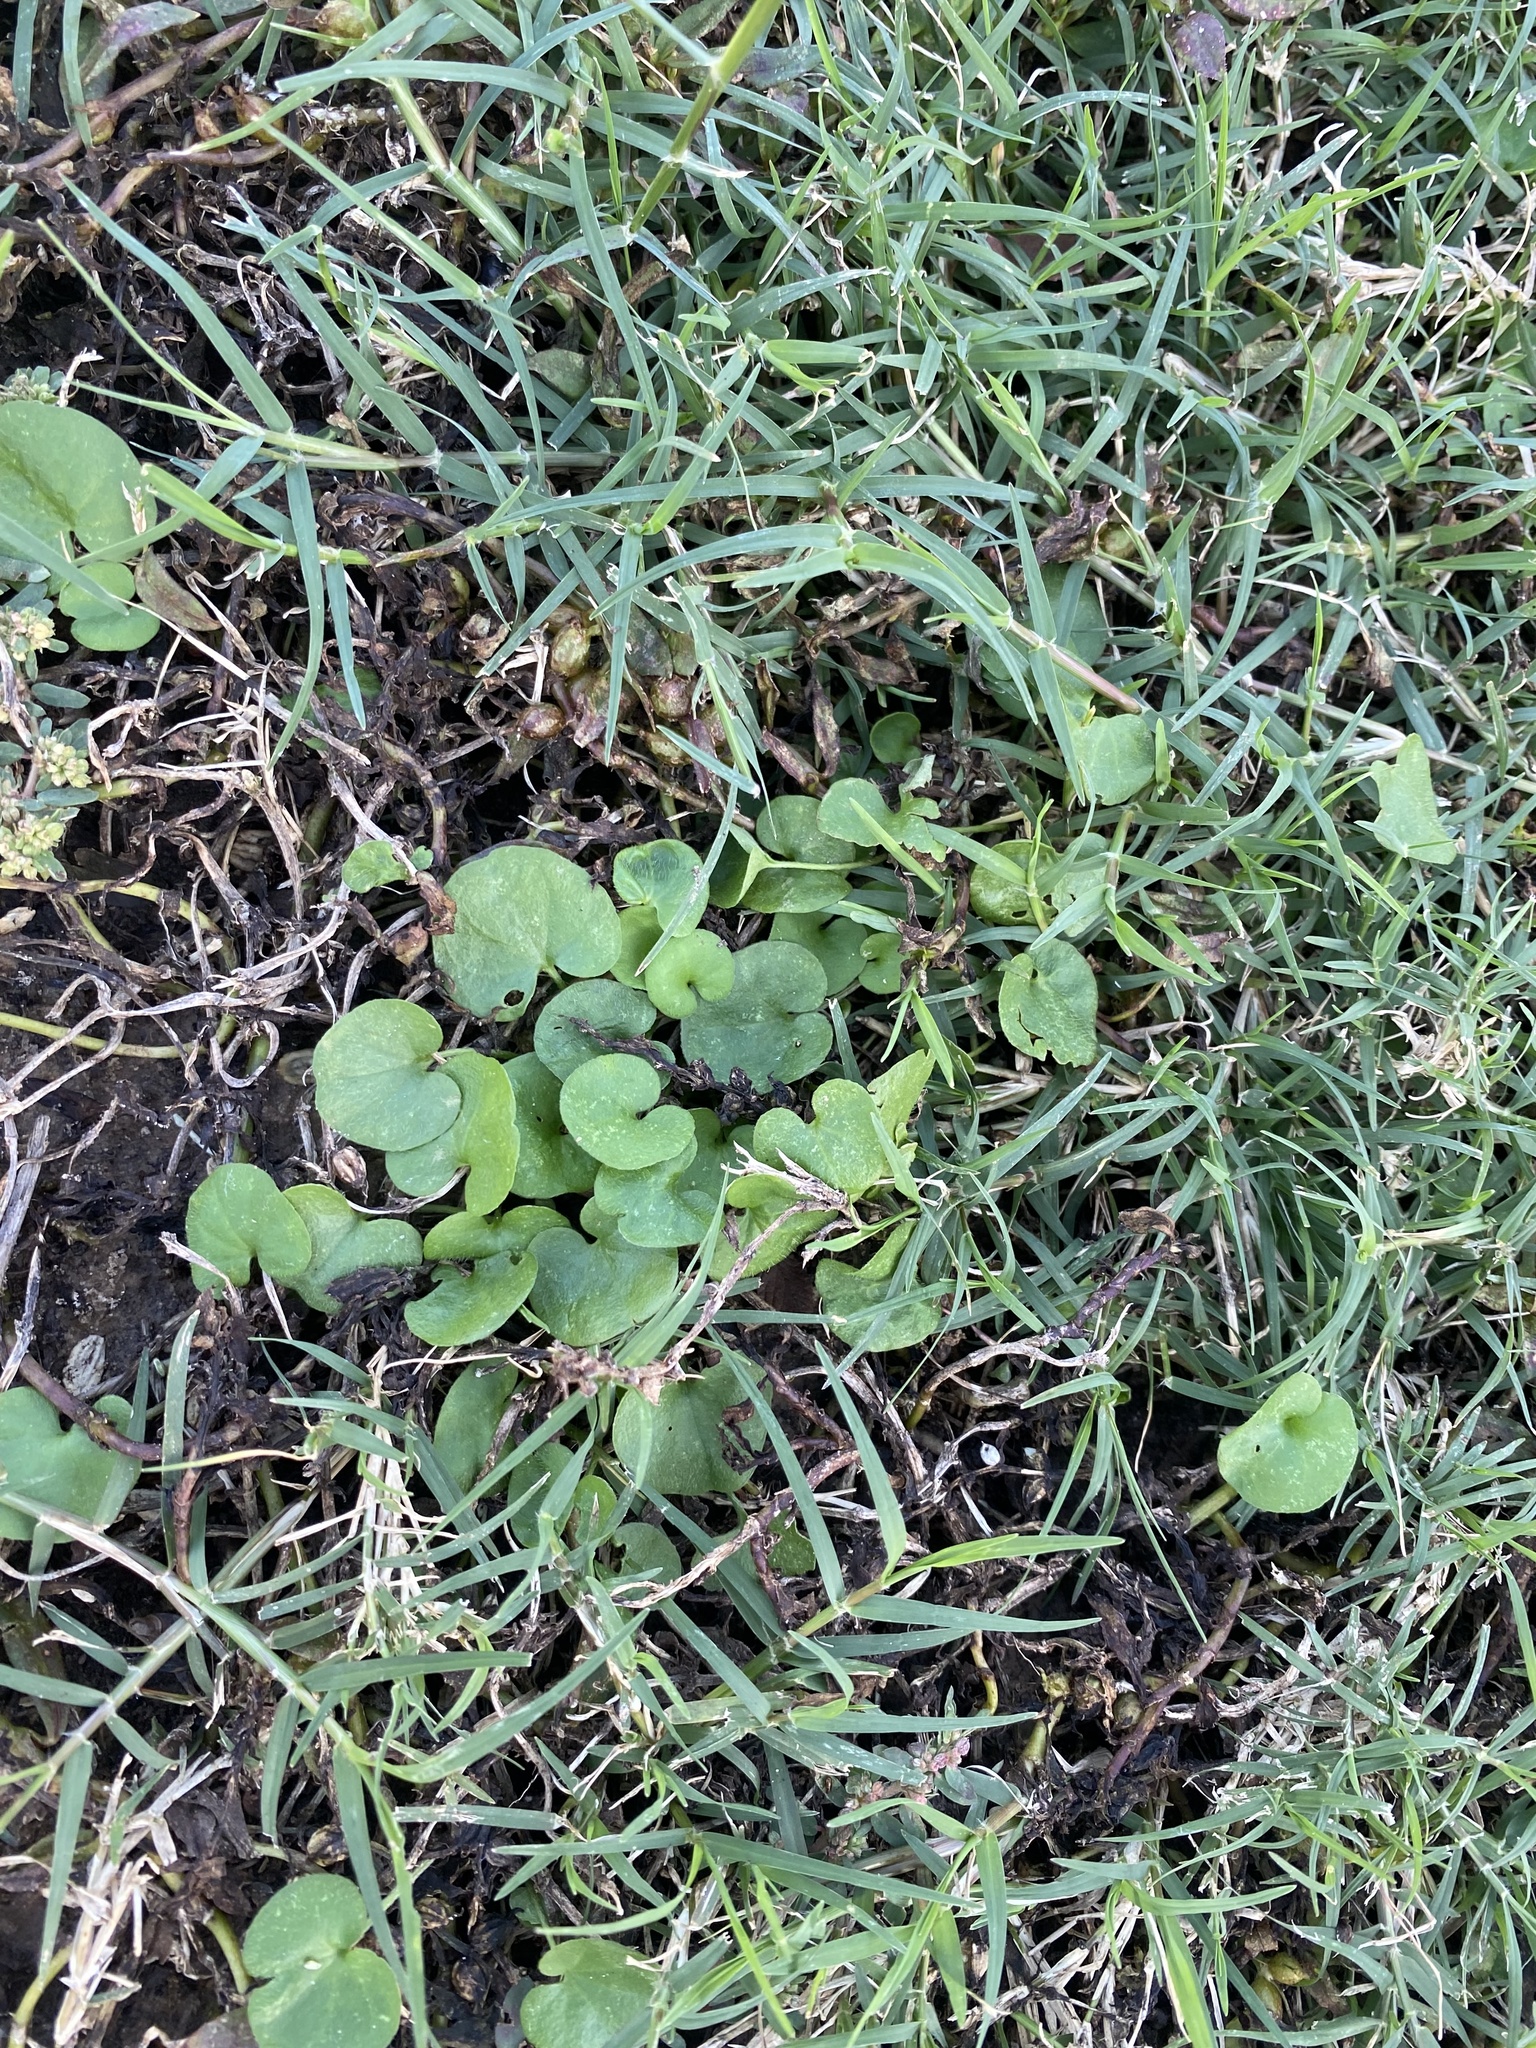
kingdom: Plantae
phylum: Tracheophyta
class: Magnoliopsida
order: Solanales
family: Convolvulaceae
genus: Dichondra
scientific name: Dichondra carolinensis
